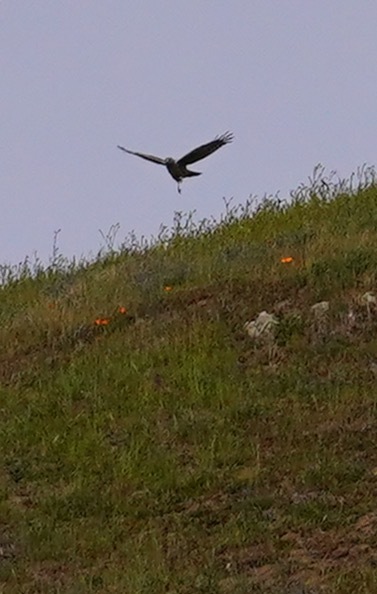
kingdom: Animalia
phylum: Chordata
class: Aves
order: Accipitriformes
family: Accipitridae
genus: Circus
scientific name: Circus cyaneus
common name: Hen harrier
